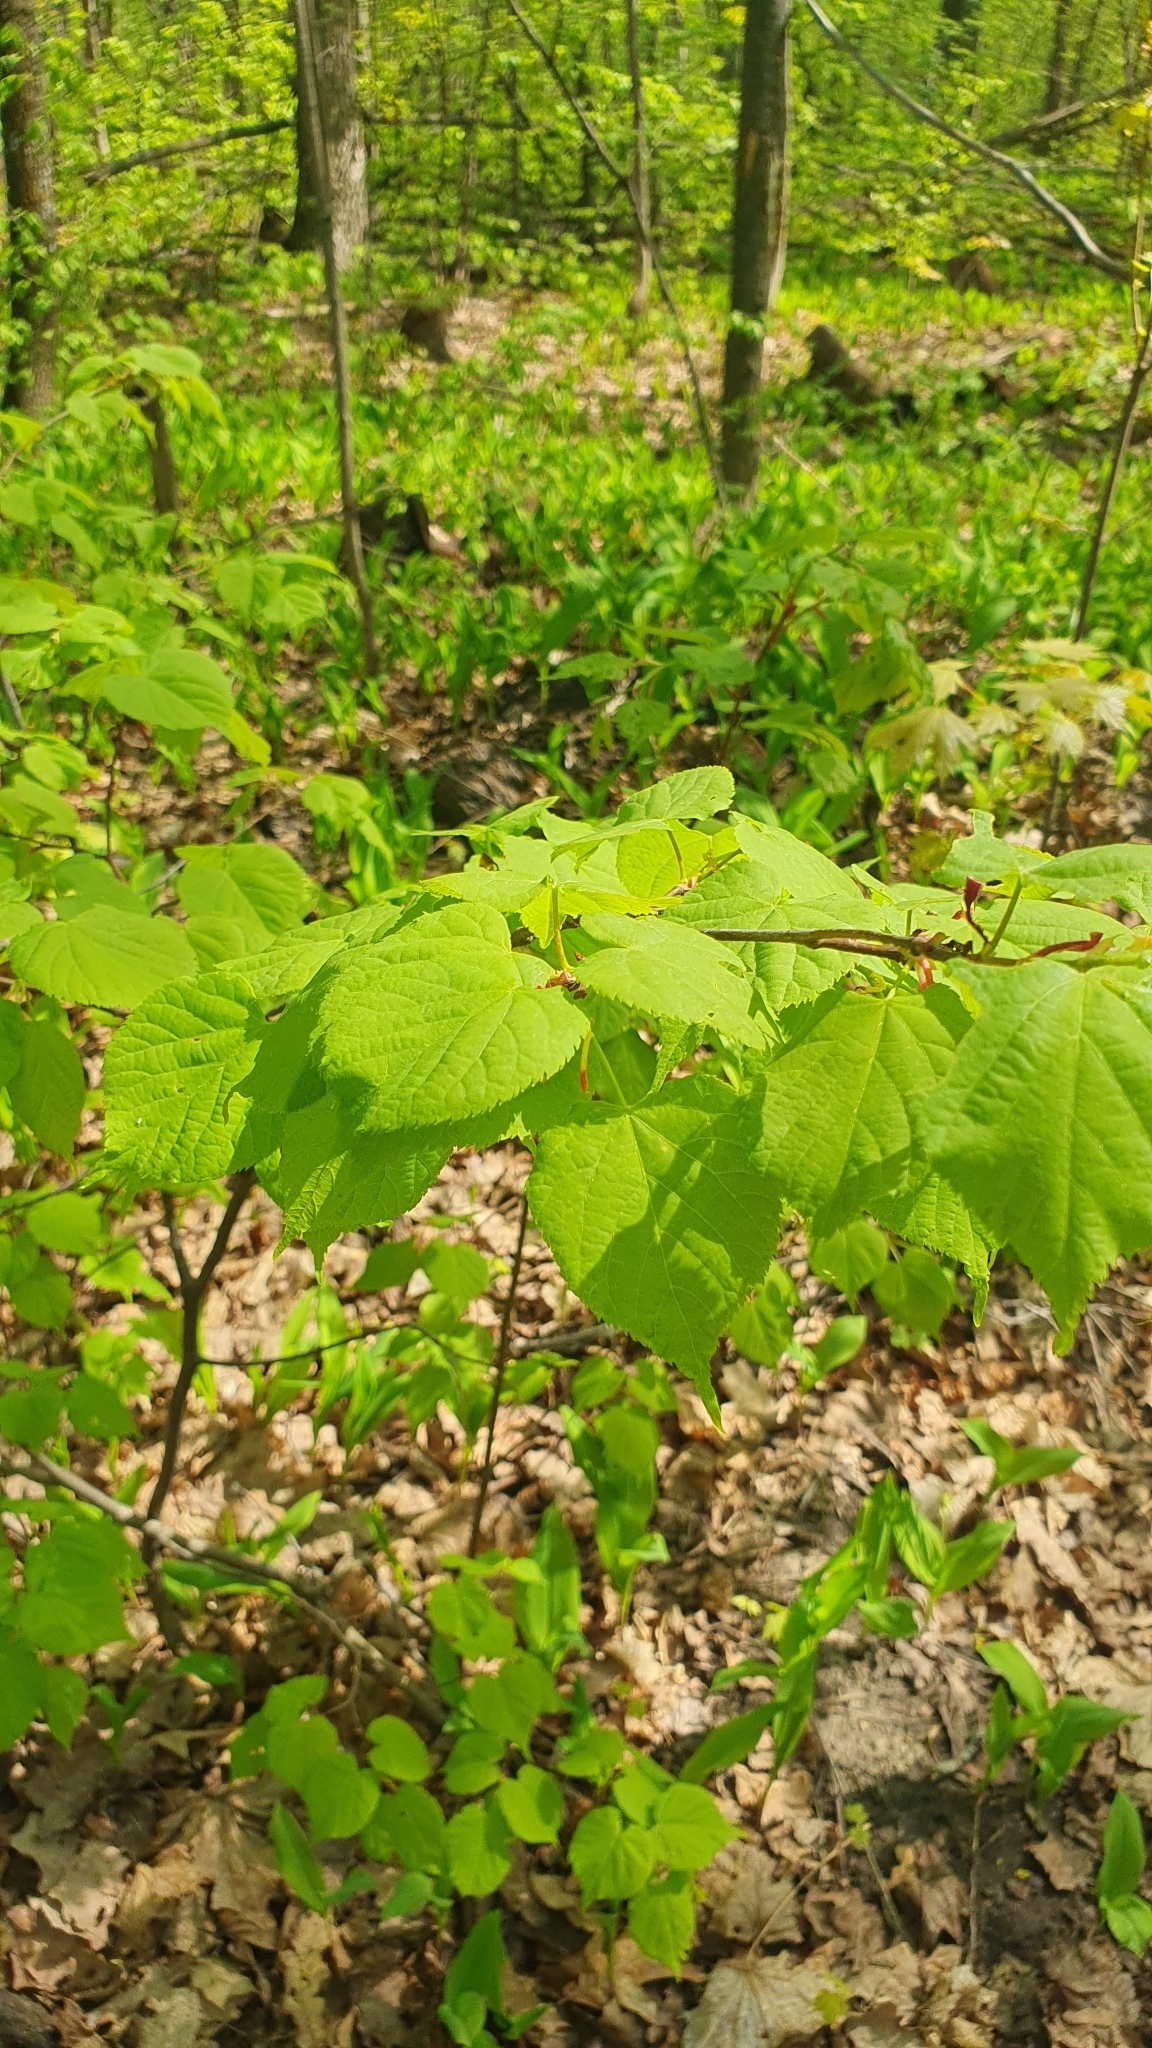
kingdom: Plantae
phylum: Tracheophyta
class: Magnoliopsida
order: Malvales
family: Malvaceae
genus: Tilia
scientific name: Tilia cordata
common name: Small-leaved lime
